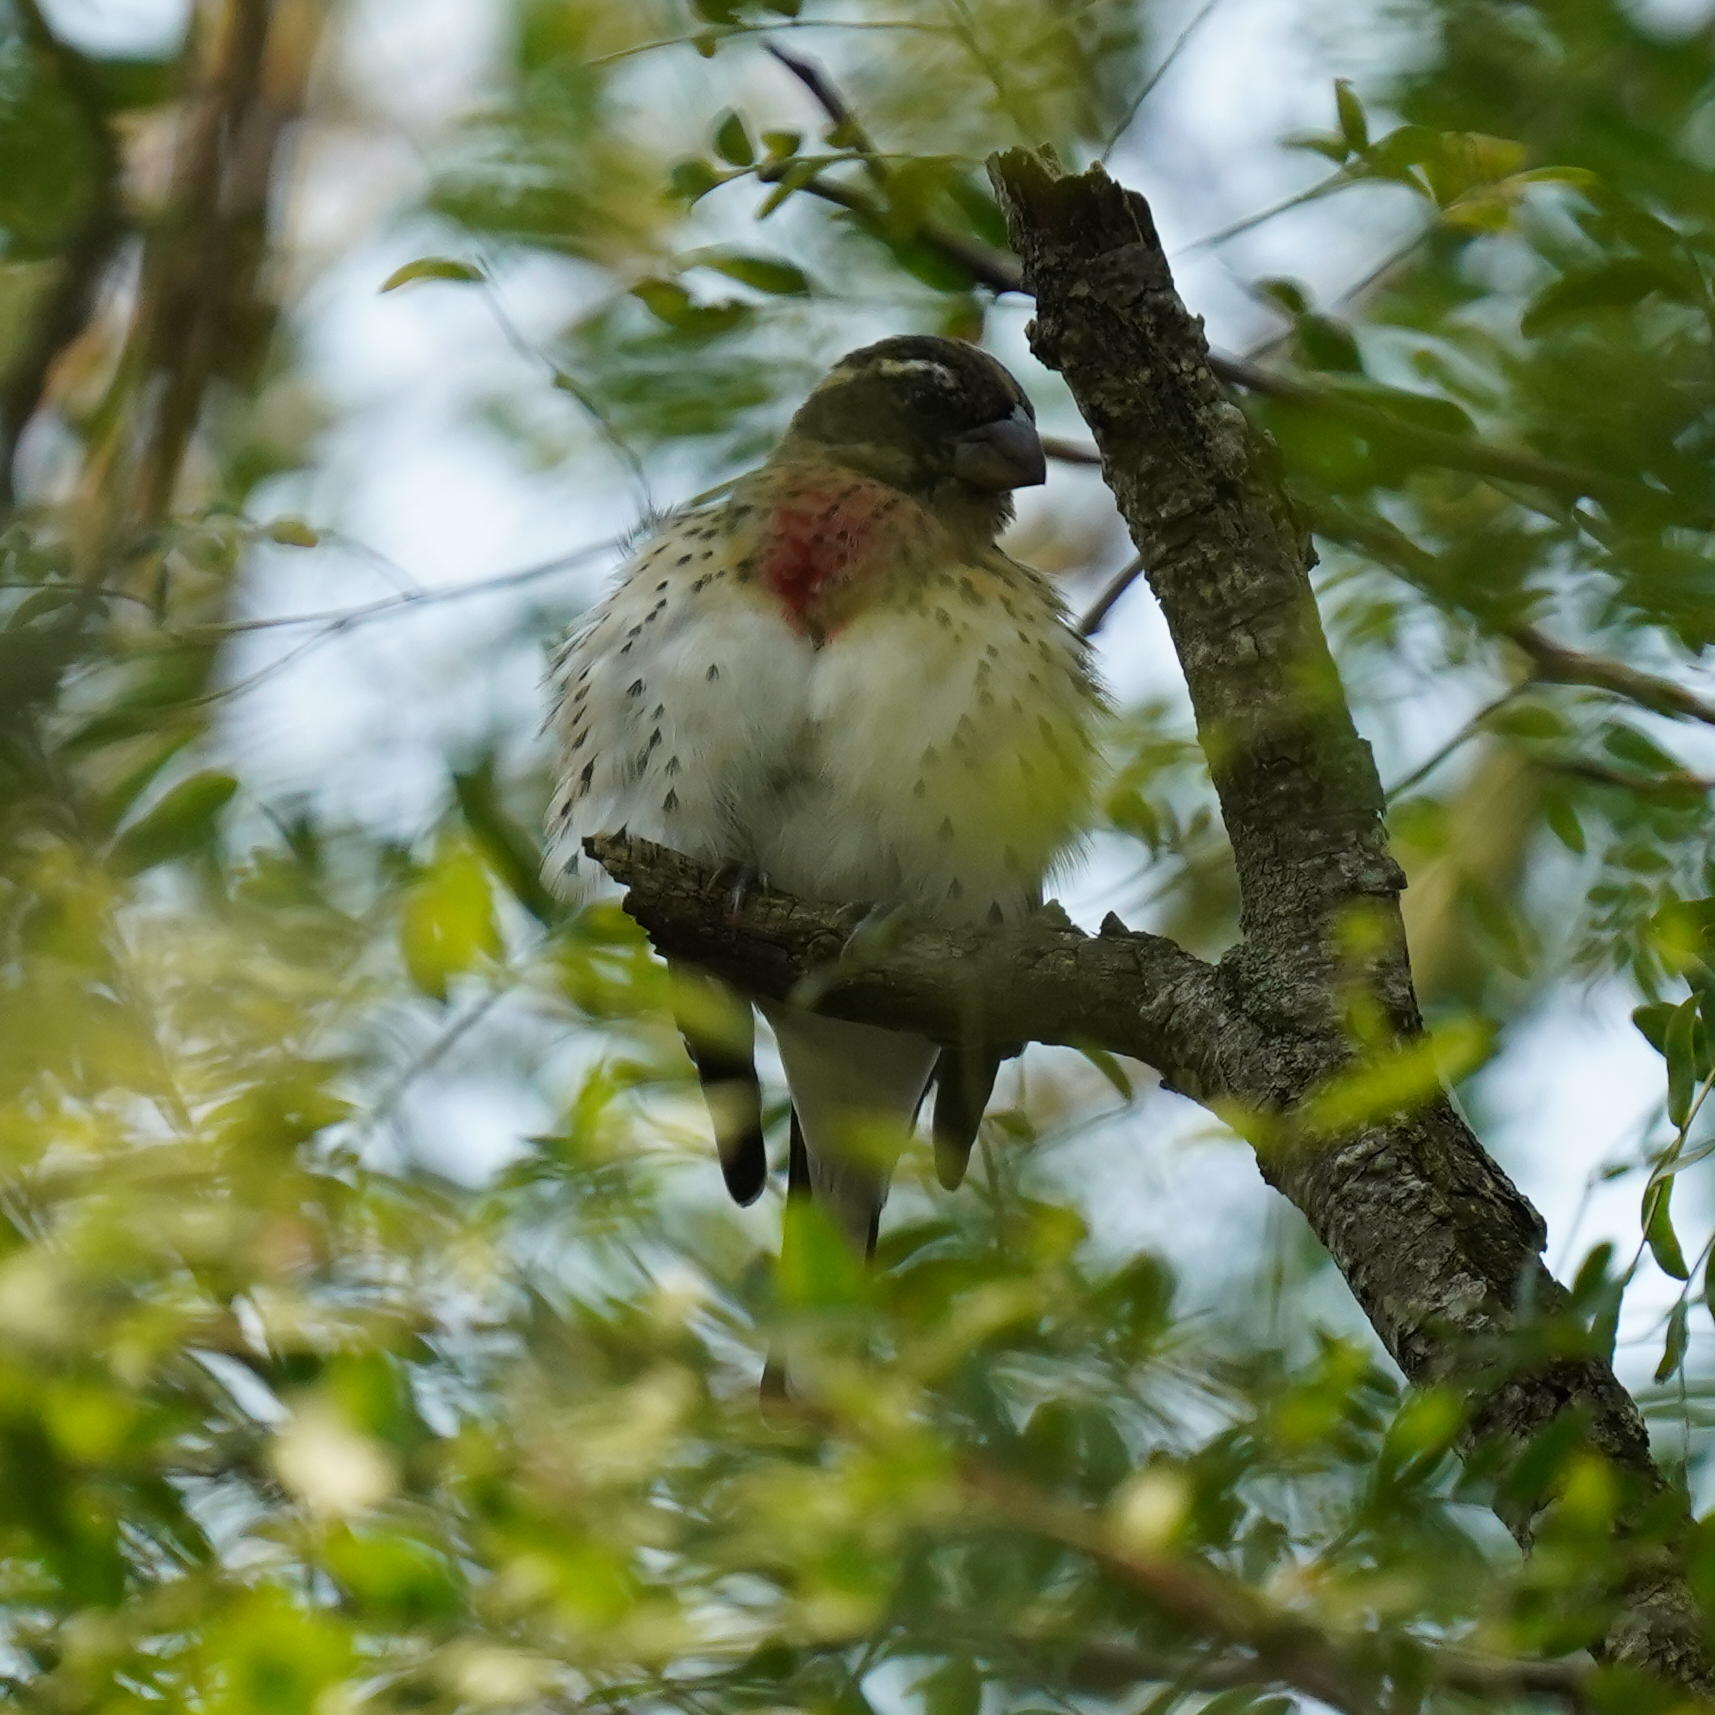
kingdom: Animalia
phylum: Chordata
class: Aves
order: Passeriformes
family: Cardinalidae
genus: Pheucticus
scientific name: Pheucticus ludovicianus
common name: Rose-breasted grosbeak
